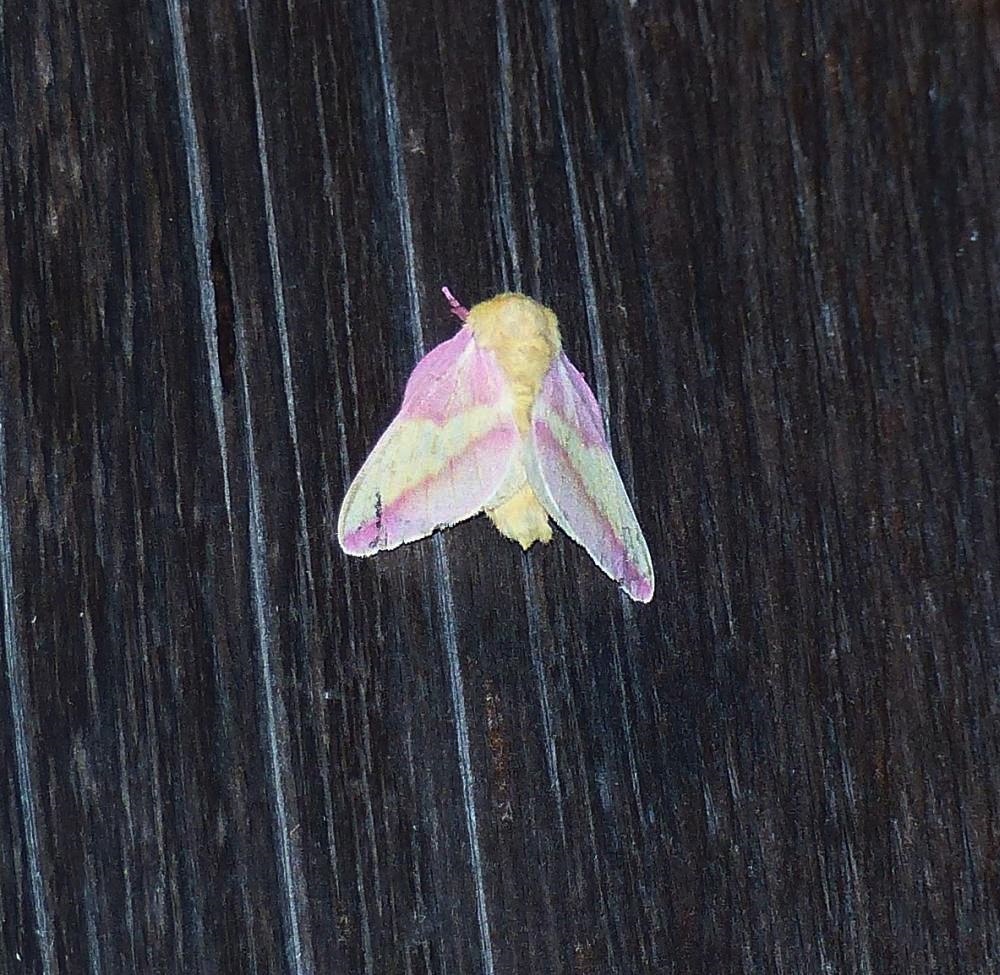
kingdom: Animalia
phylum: Arthropoda
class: Insecta
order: Lepidoptera
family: Saturniidae
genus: Dryocampa
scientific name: Dryocampa rubicunda
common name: Rosy maple moth
